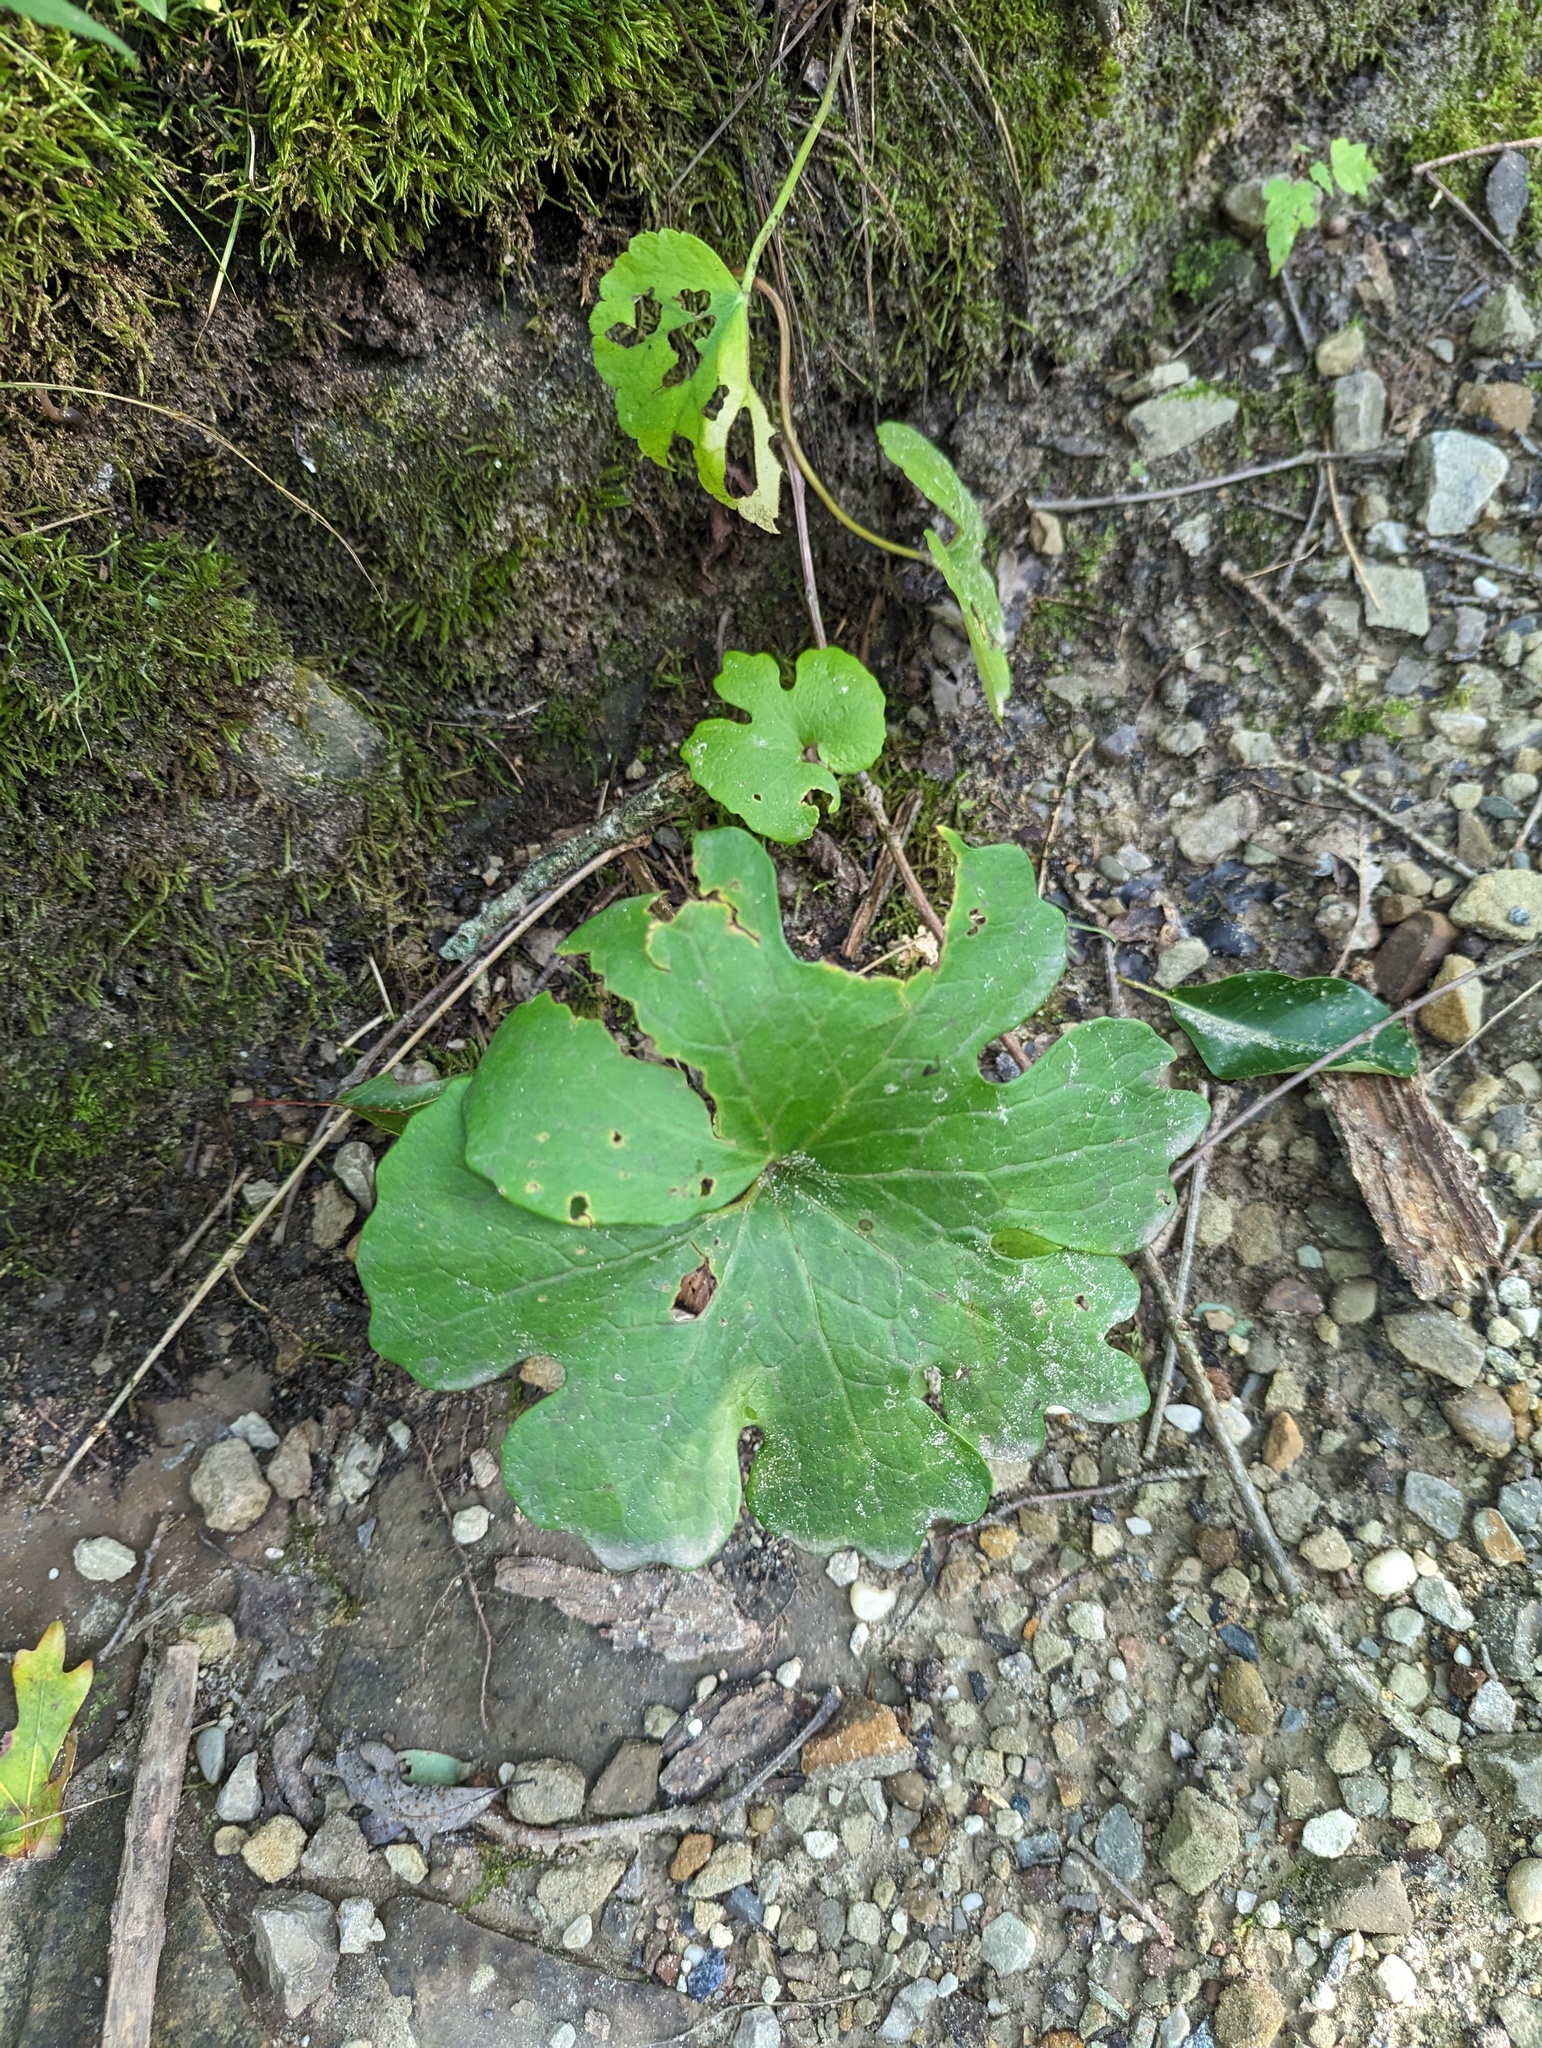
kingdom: Plantae
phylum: Tracheophyta
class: Magnoliopsida
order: Ranunculales
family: Papaveraceae
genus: Sanguinaria
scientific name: Sanguinaria canadensis
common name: Bloodroot
